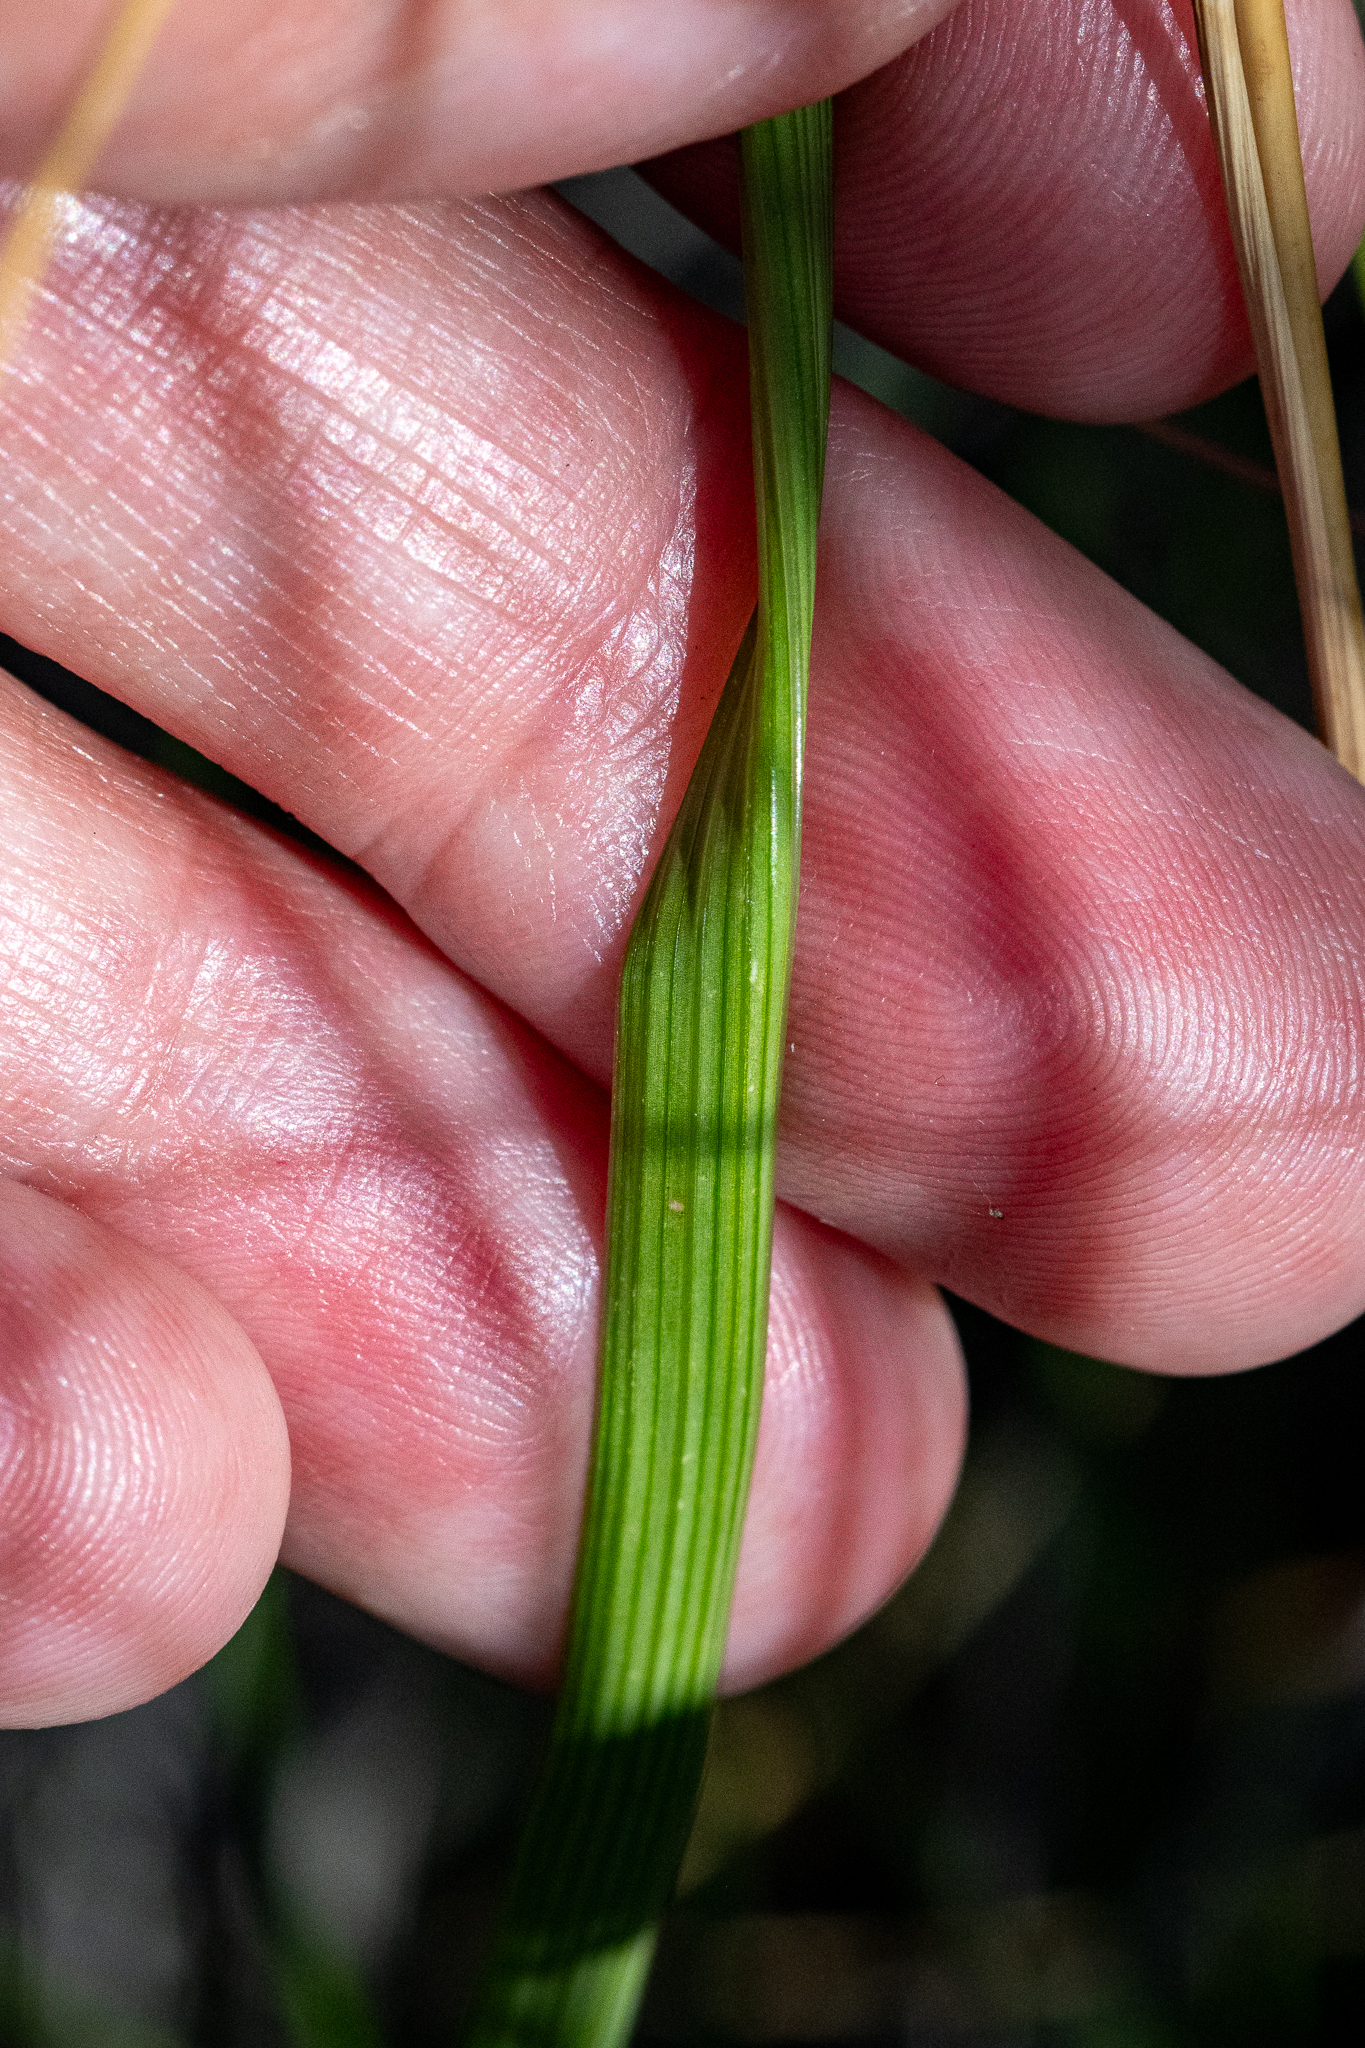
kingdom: Plantae
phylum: Tracheophyta
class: Liliopsida
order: Asparagales
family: Iridaceae
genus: Micranthus
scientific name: Micranthus plantagineus
